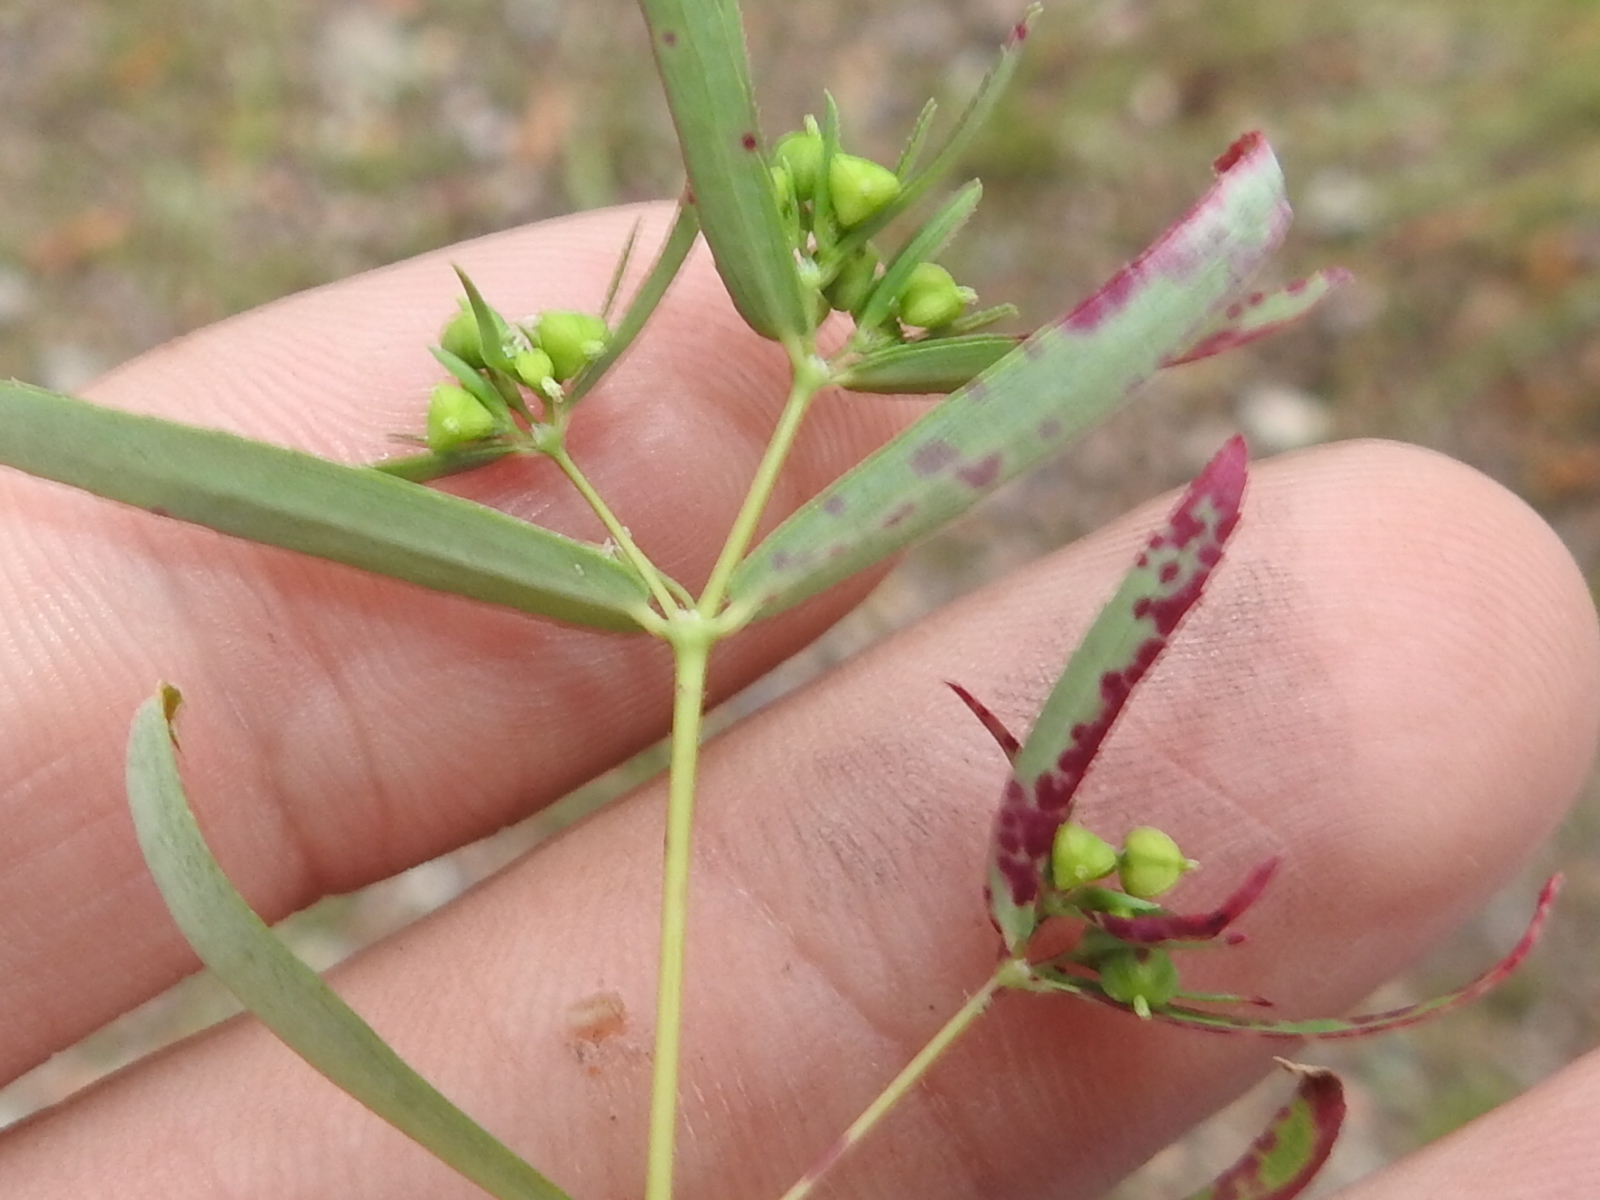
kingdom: Plantae
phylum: Tracheophyta
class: Magnoliopsida
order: Malpighiales
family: Euphorbiaceae
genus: Euphorbia
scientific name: Euphorbia hyssopifolia
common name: Hyssopleaf sandmat
